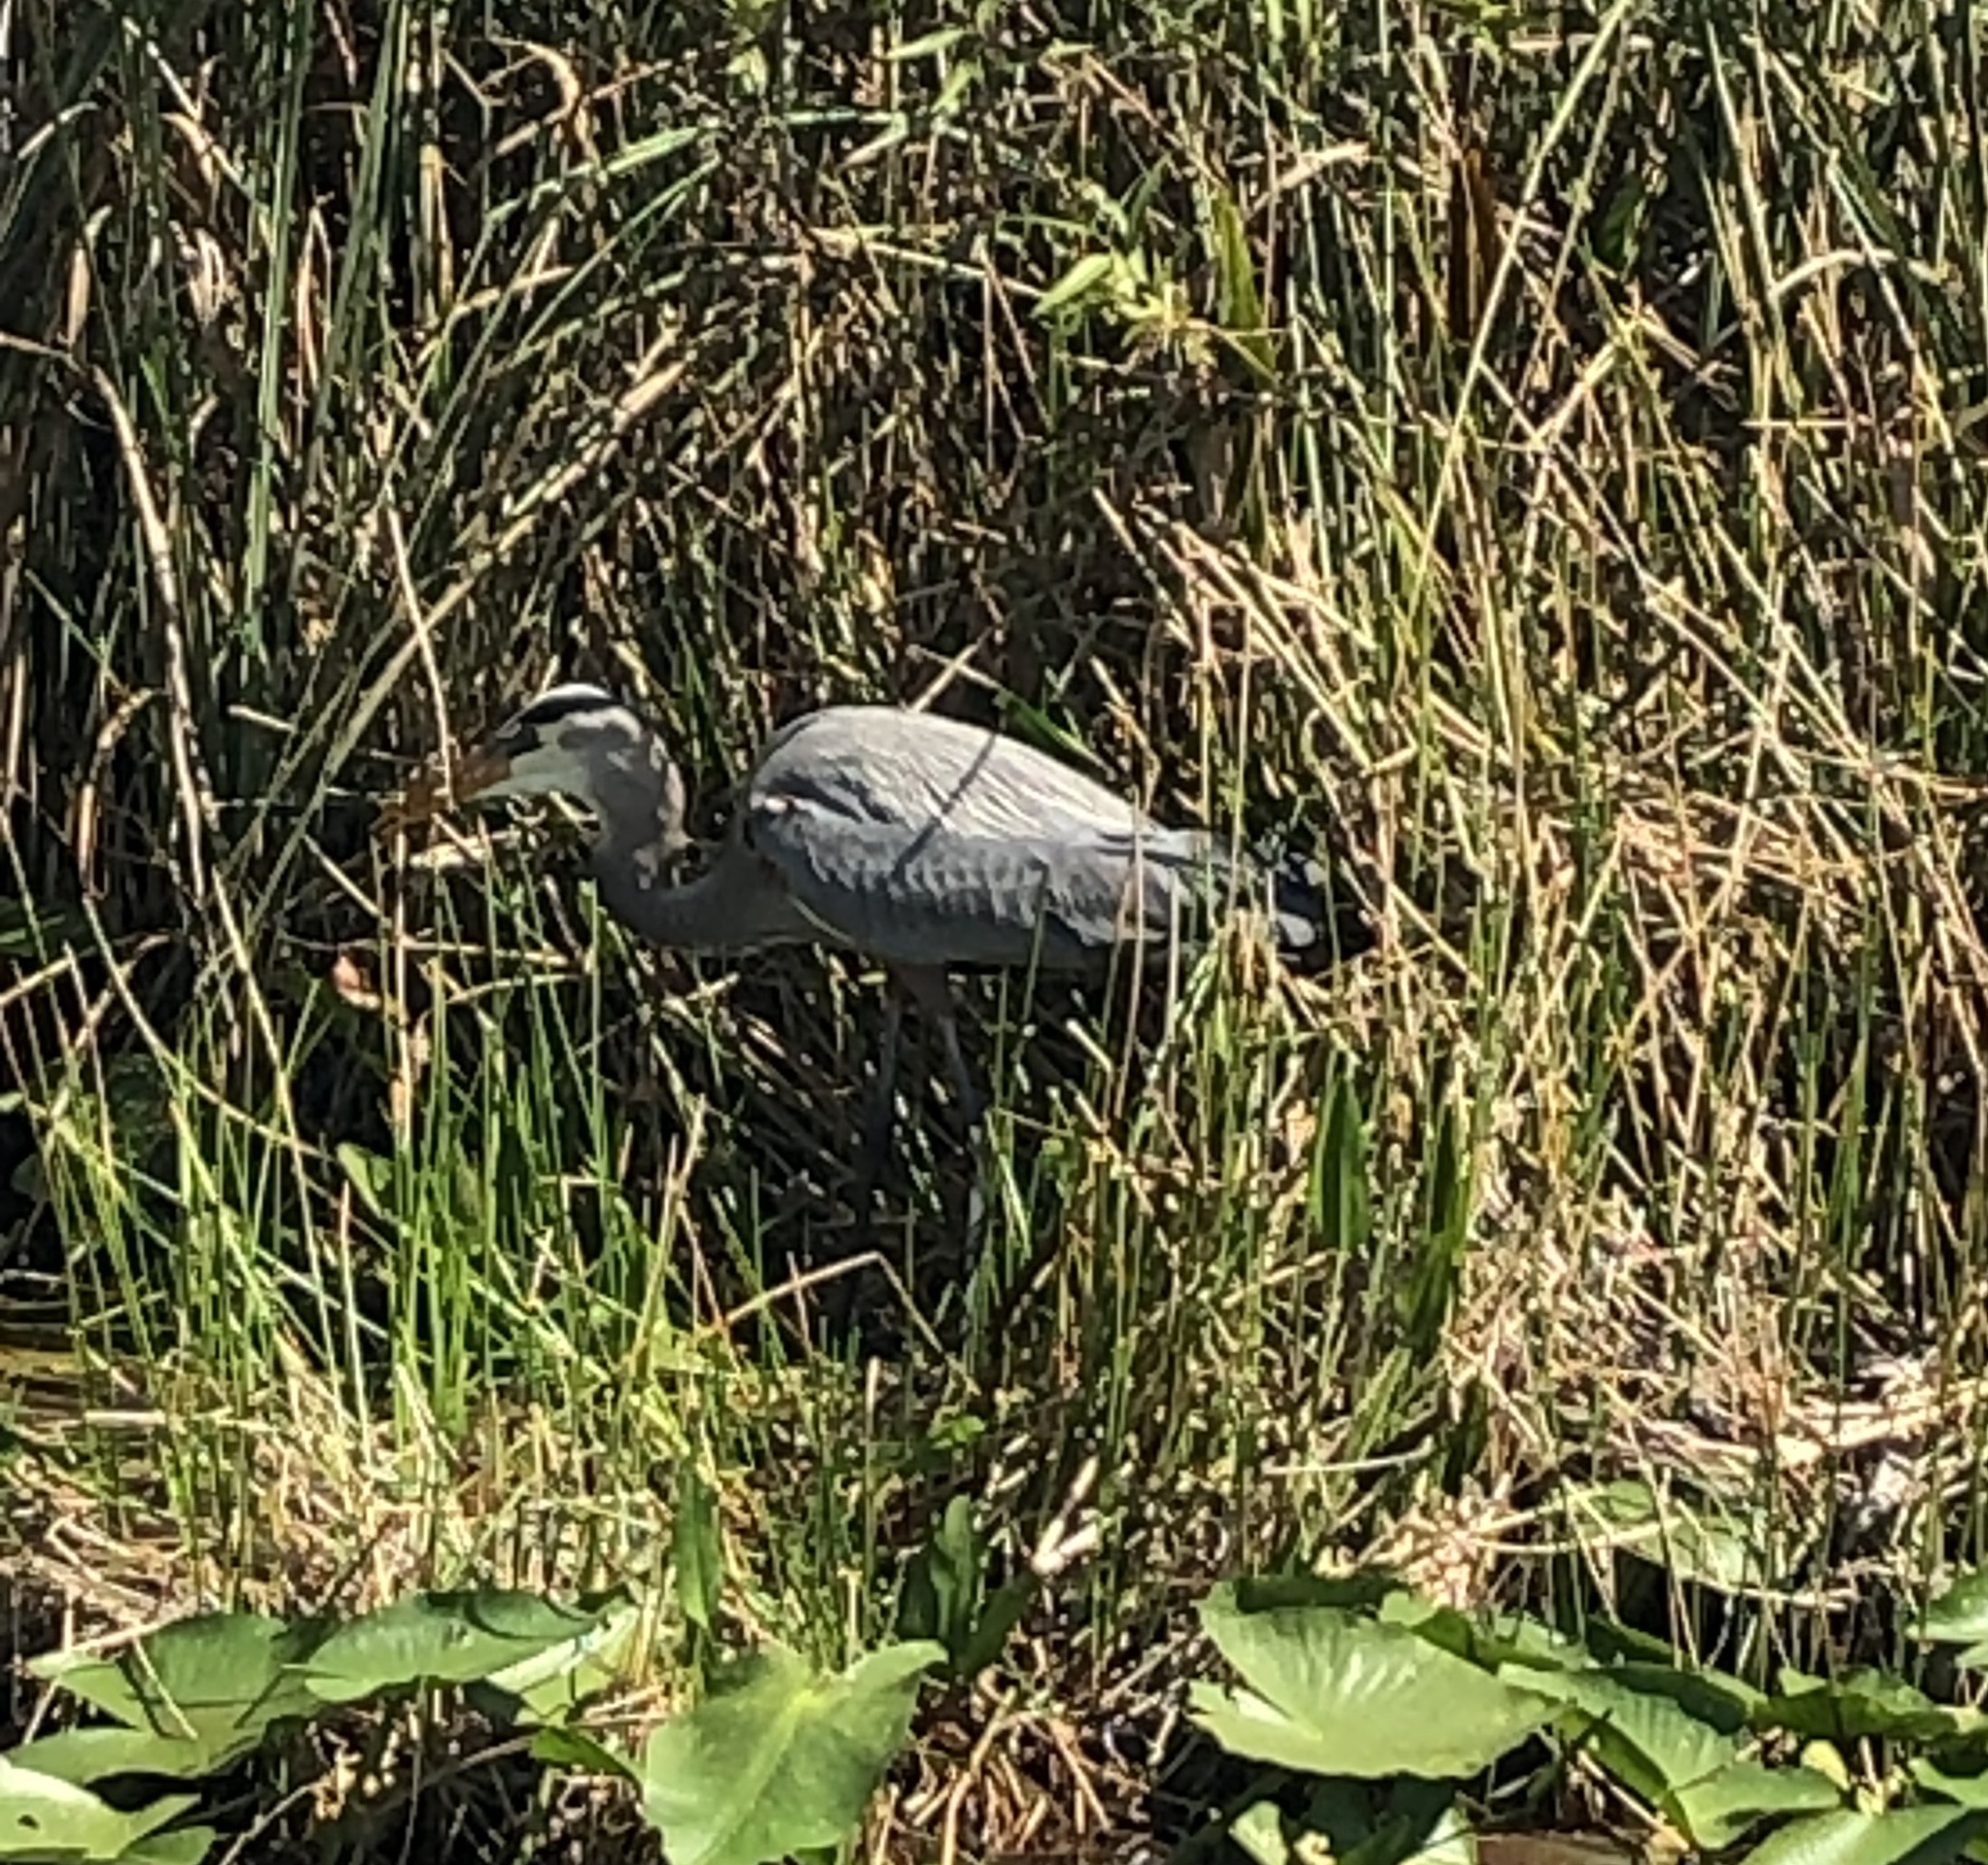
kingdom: Animalia
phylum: Chordata
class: Aves
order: Pelecaniformes
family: Ardeidae
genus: Ardea
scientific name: Ardea herodias
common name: Great blue heron
